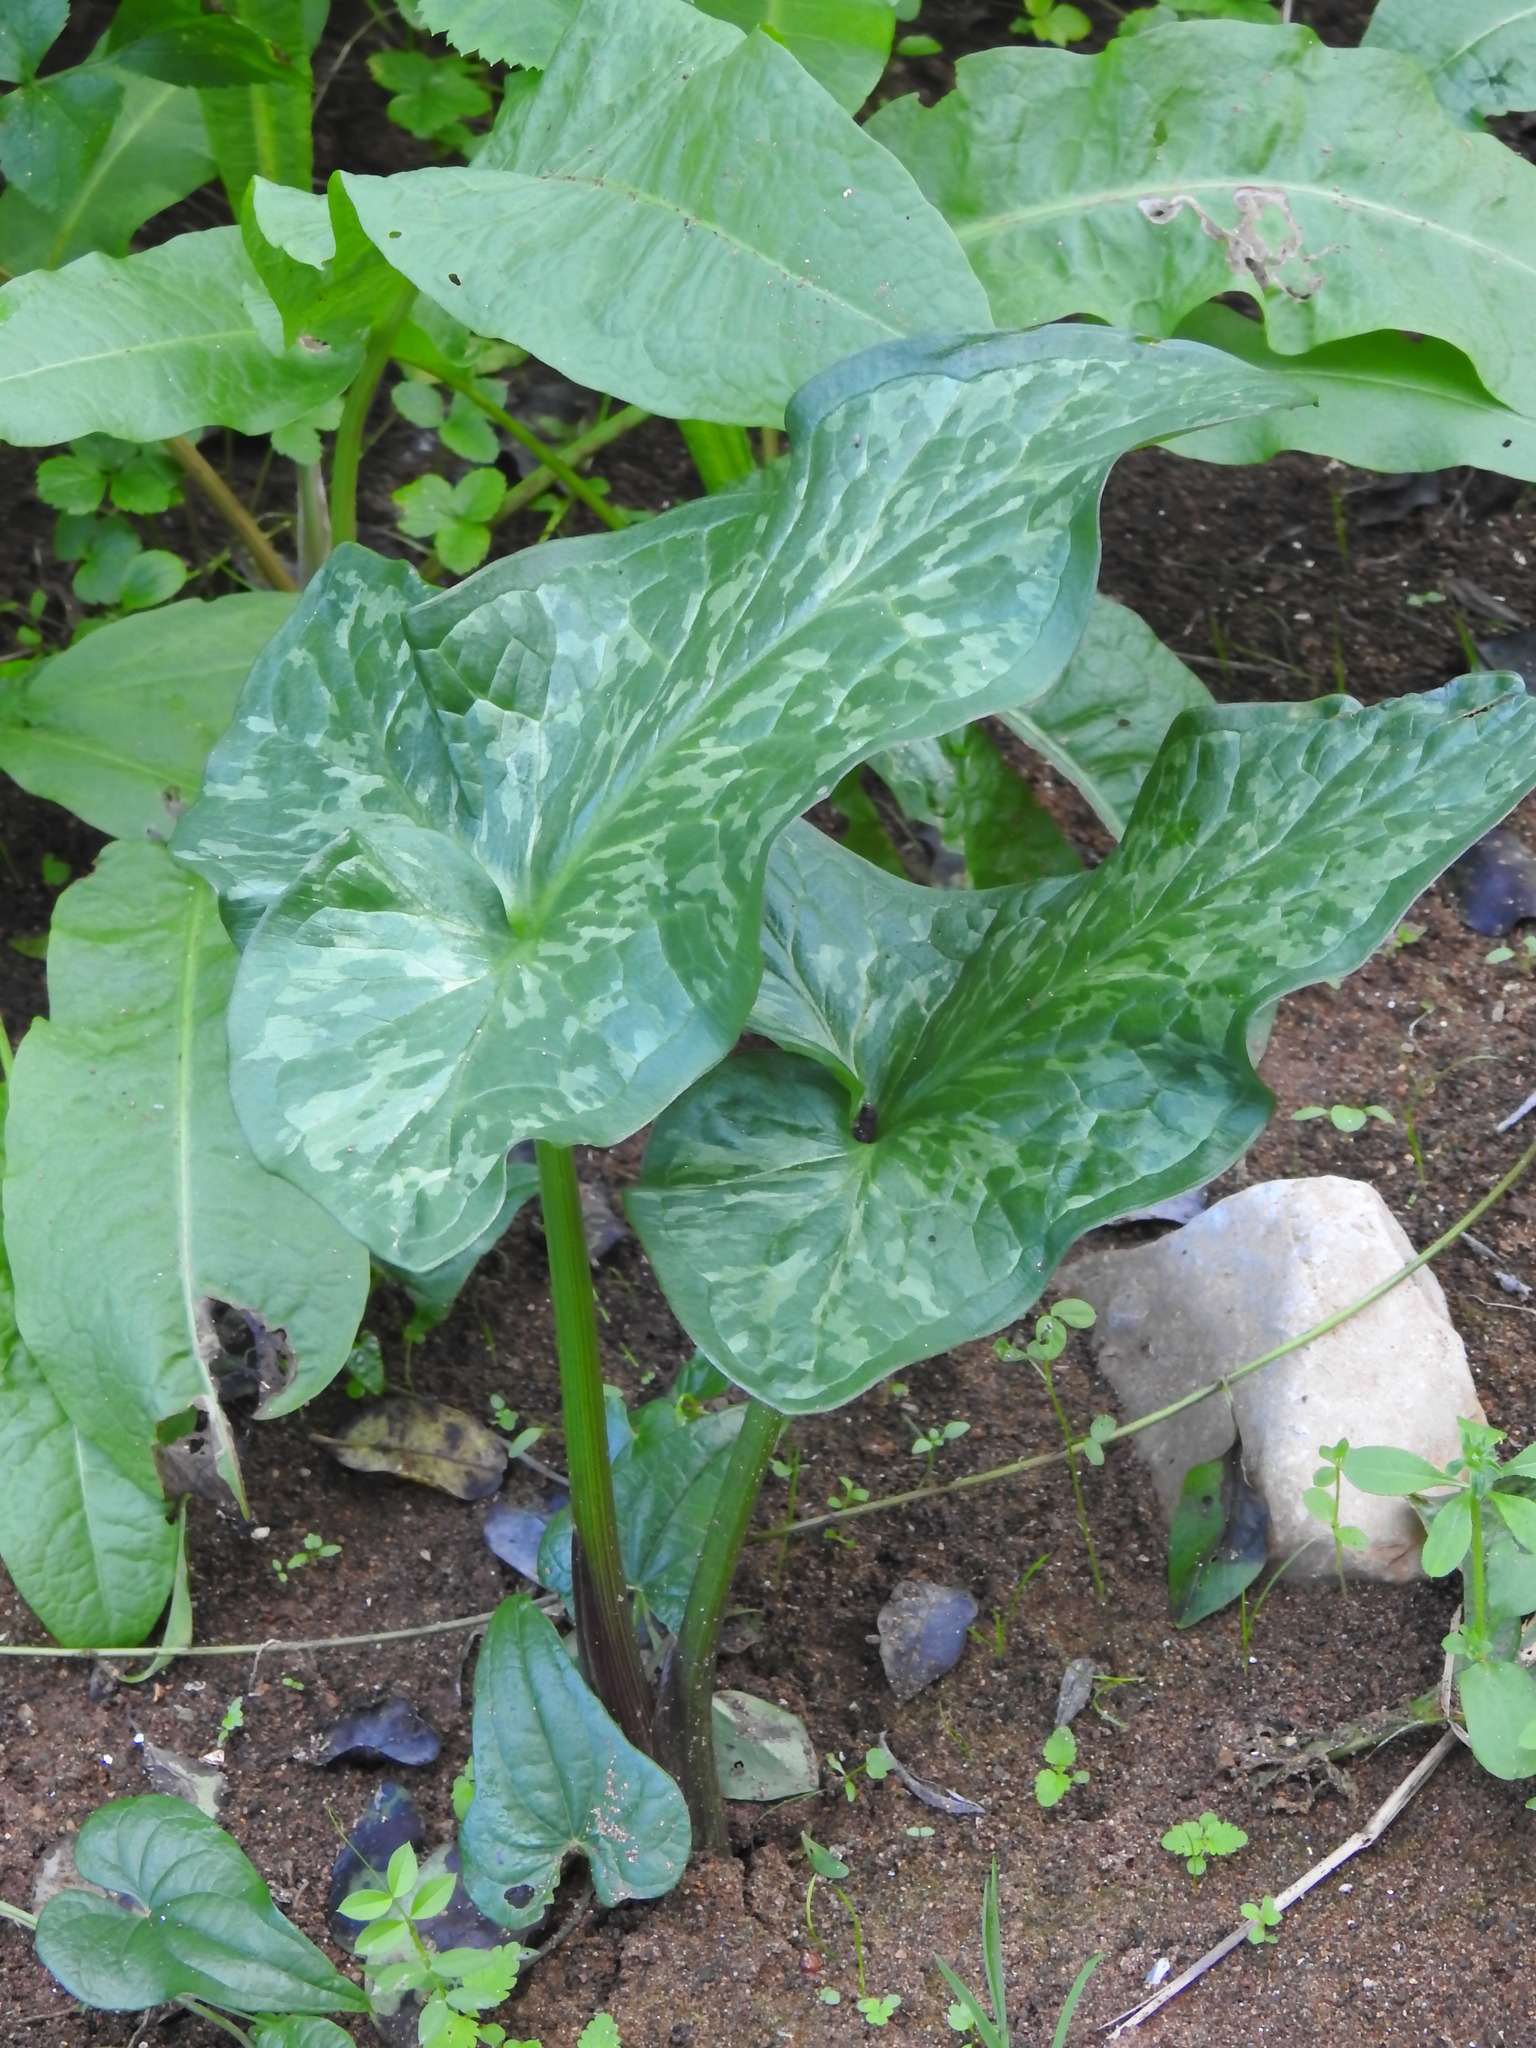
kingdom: Plantae
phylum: Tracheophyta
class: Liliopsida
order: Alismatales
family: Araceae
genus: Arum
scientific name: Arum italicum
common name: Italian lords-and-ladies
